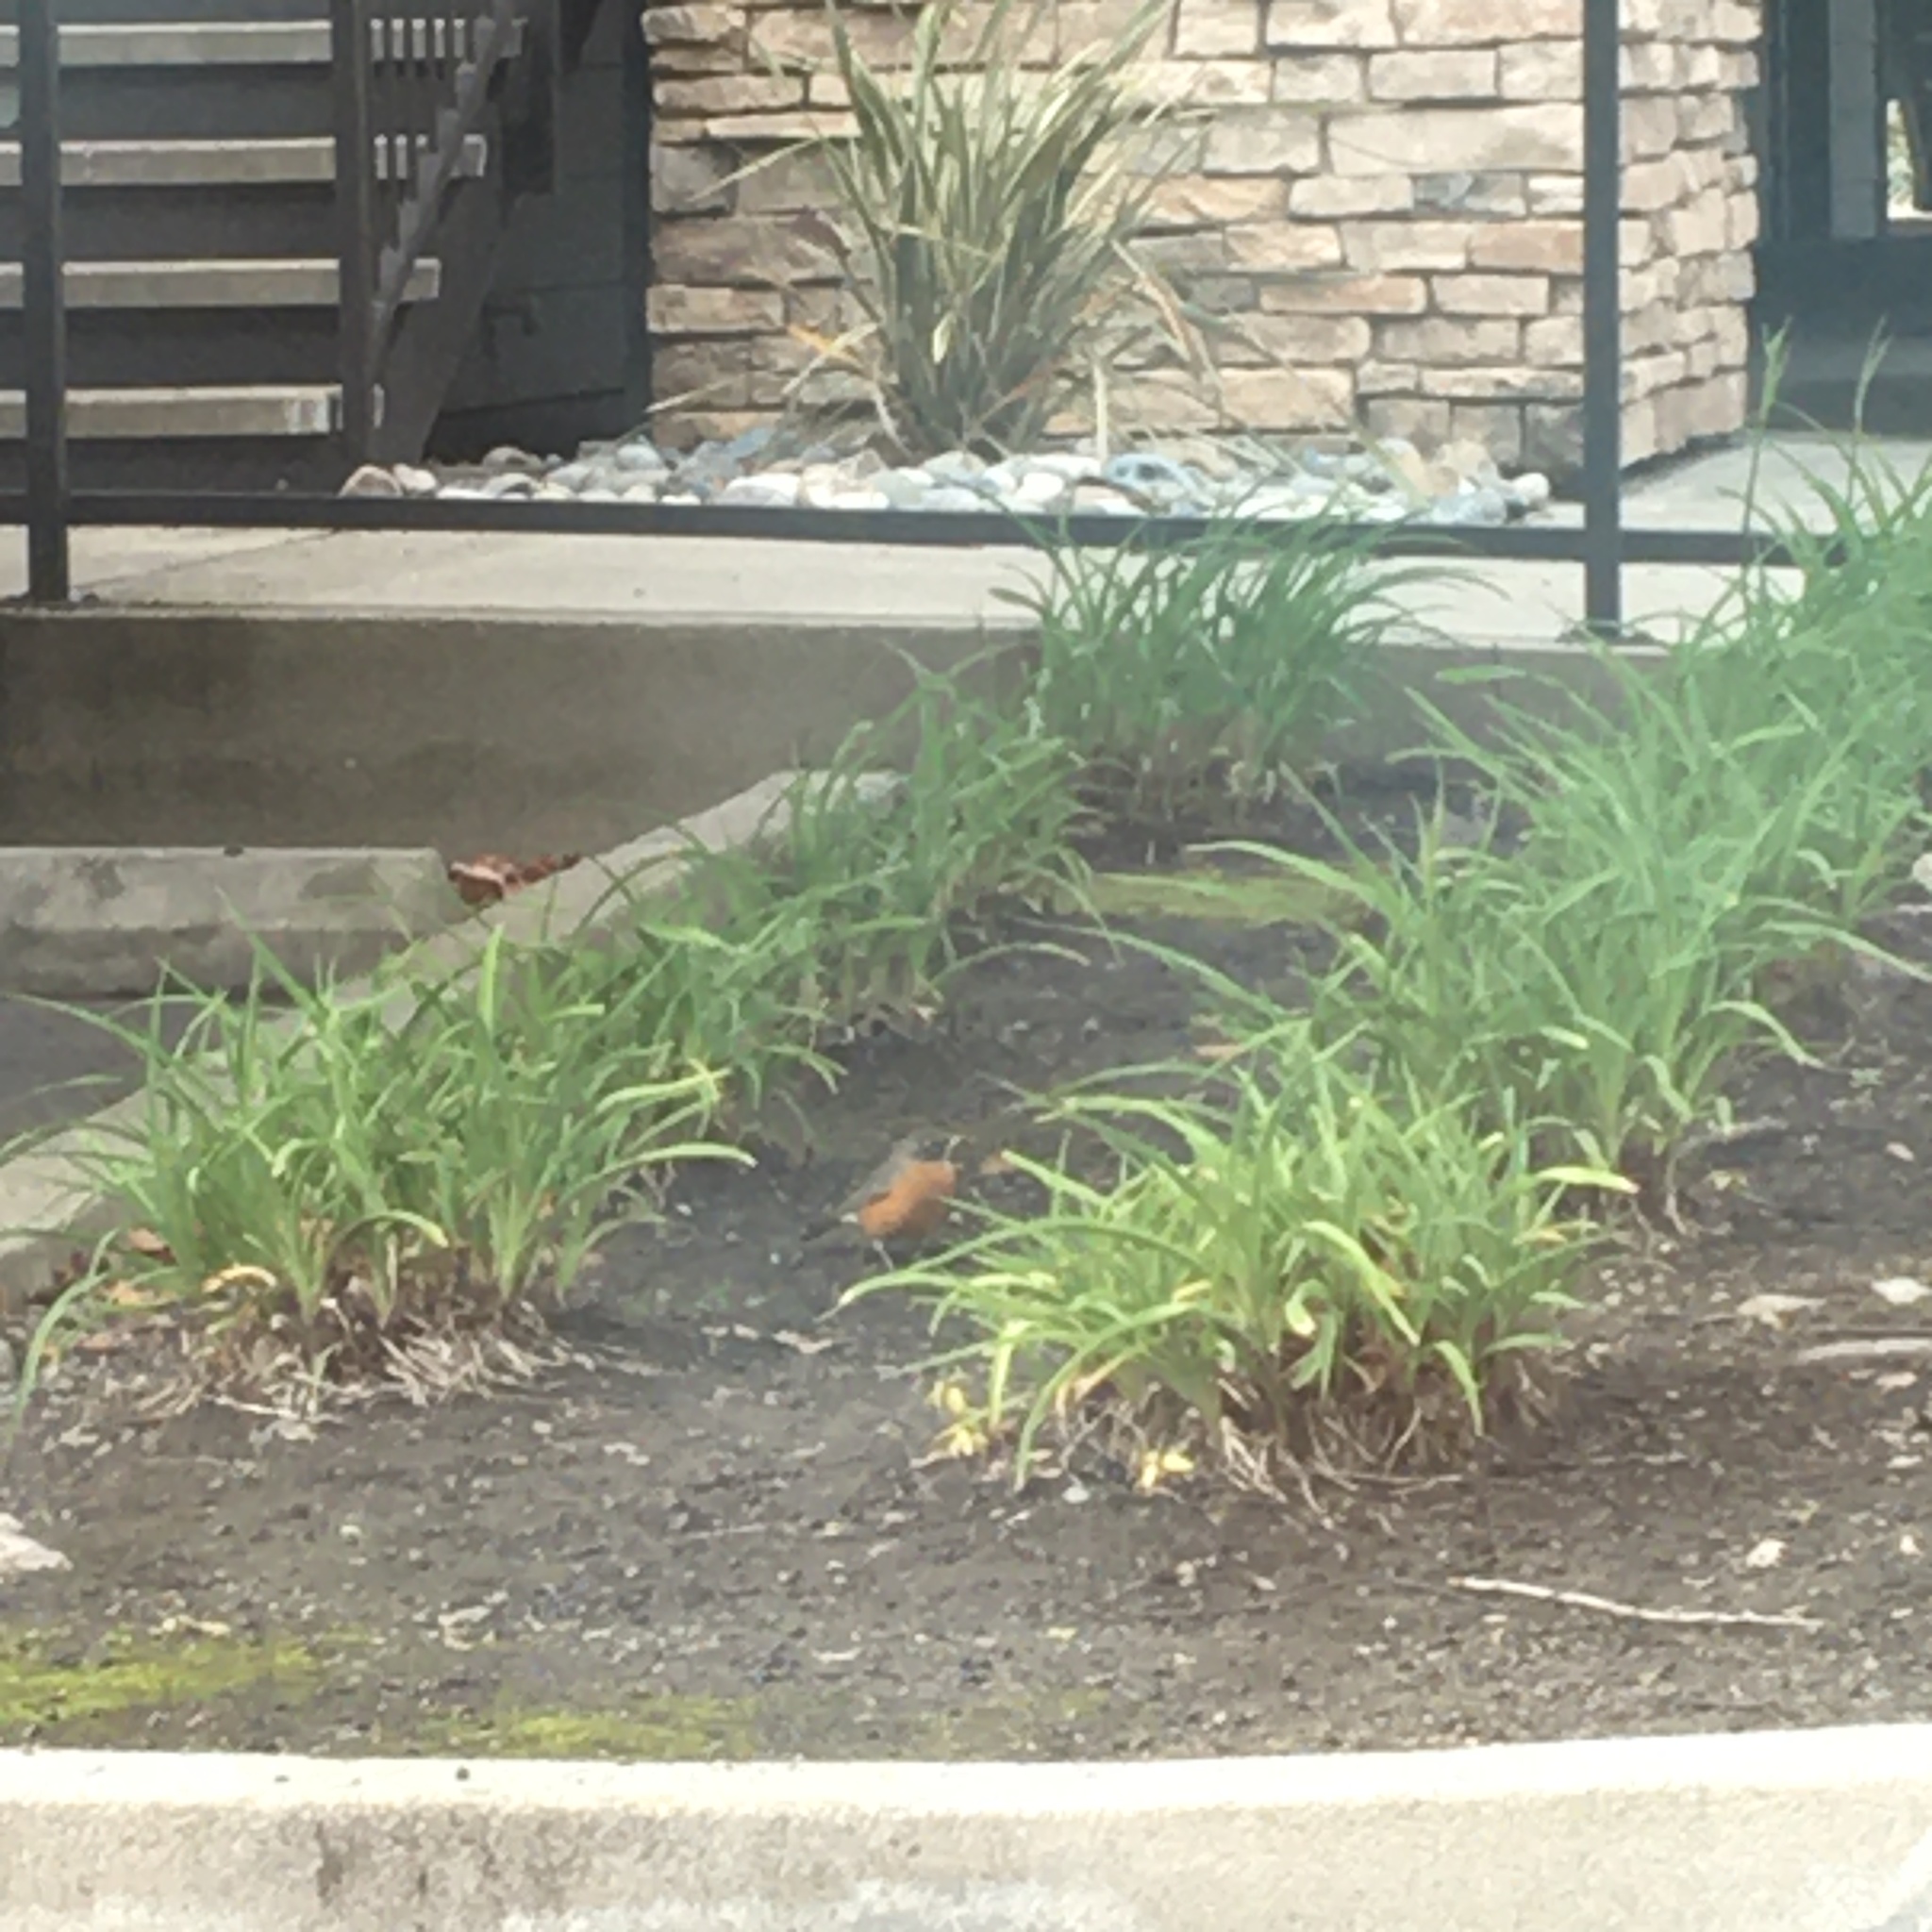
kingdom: Animalia
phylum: Chordata
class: Aves
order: Passeriformes
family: Turdidae
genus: Turdus
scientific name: Turdus migratorius
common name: American robin
